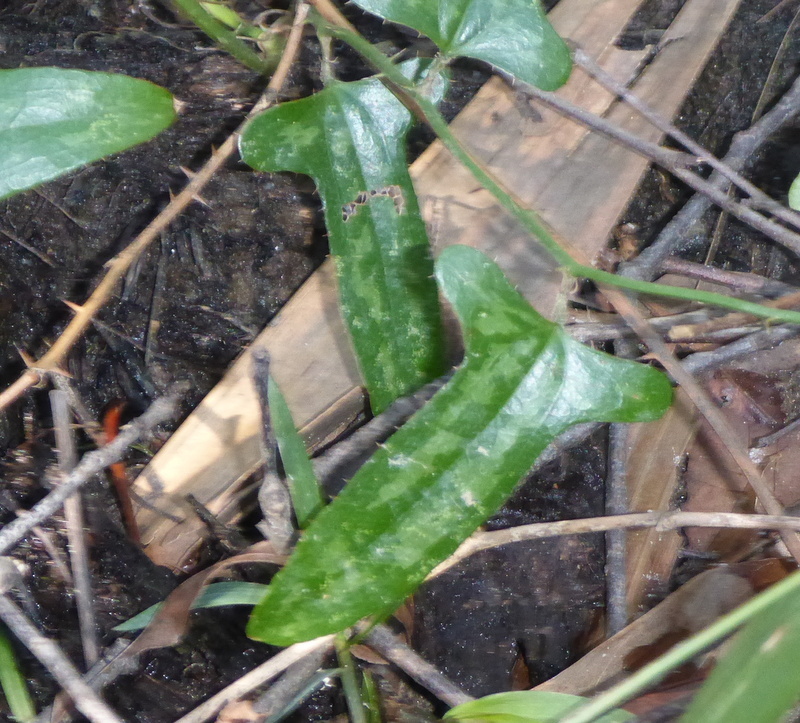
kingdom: Plantae
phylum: Tracheophyta
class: Liliopsida
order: Liliales
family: Smilacaceae
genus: Smilax
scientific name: Smilax bona-nox
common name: Catbrier
